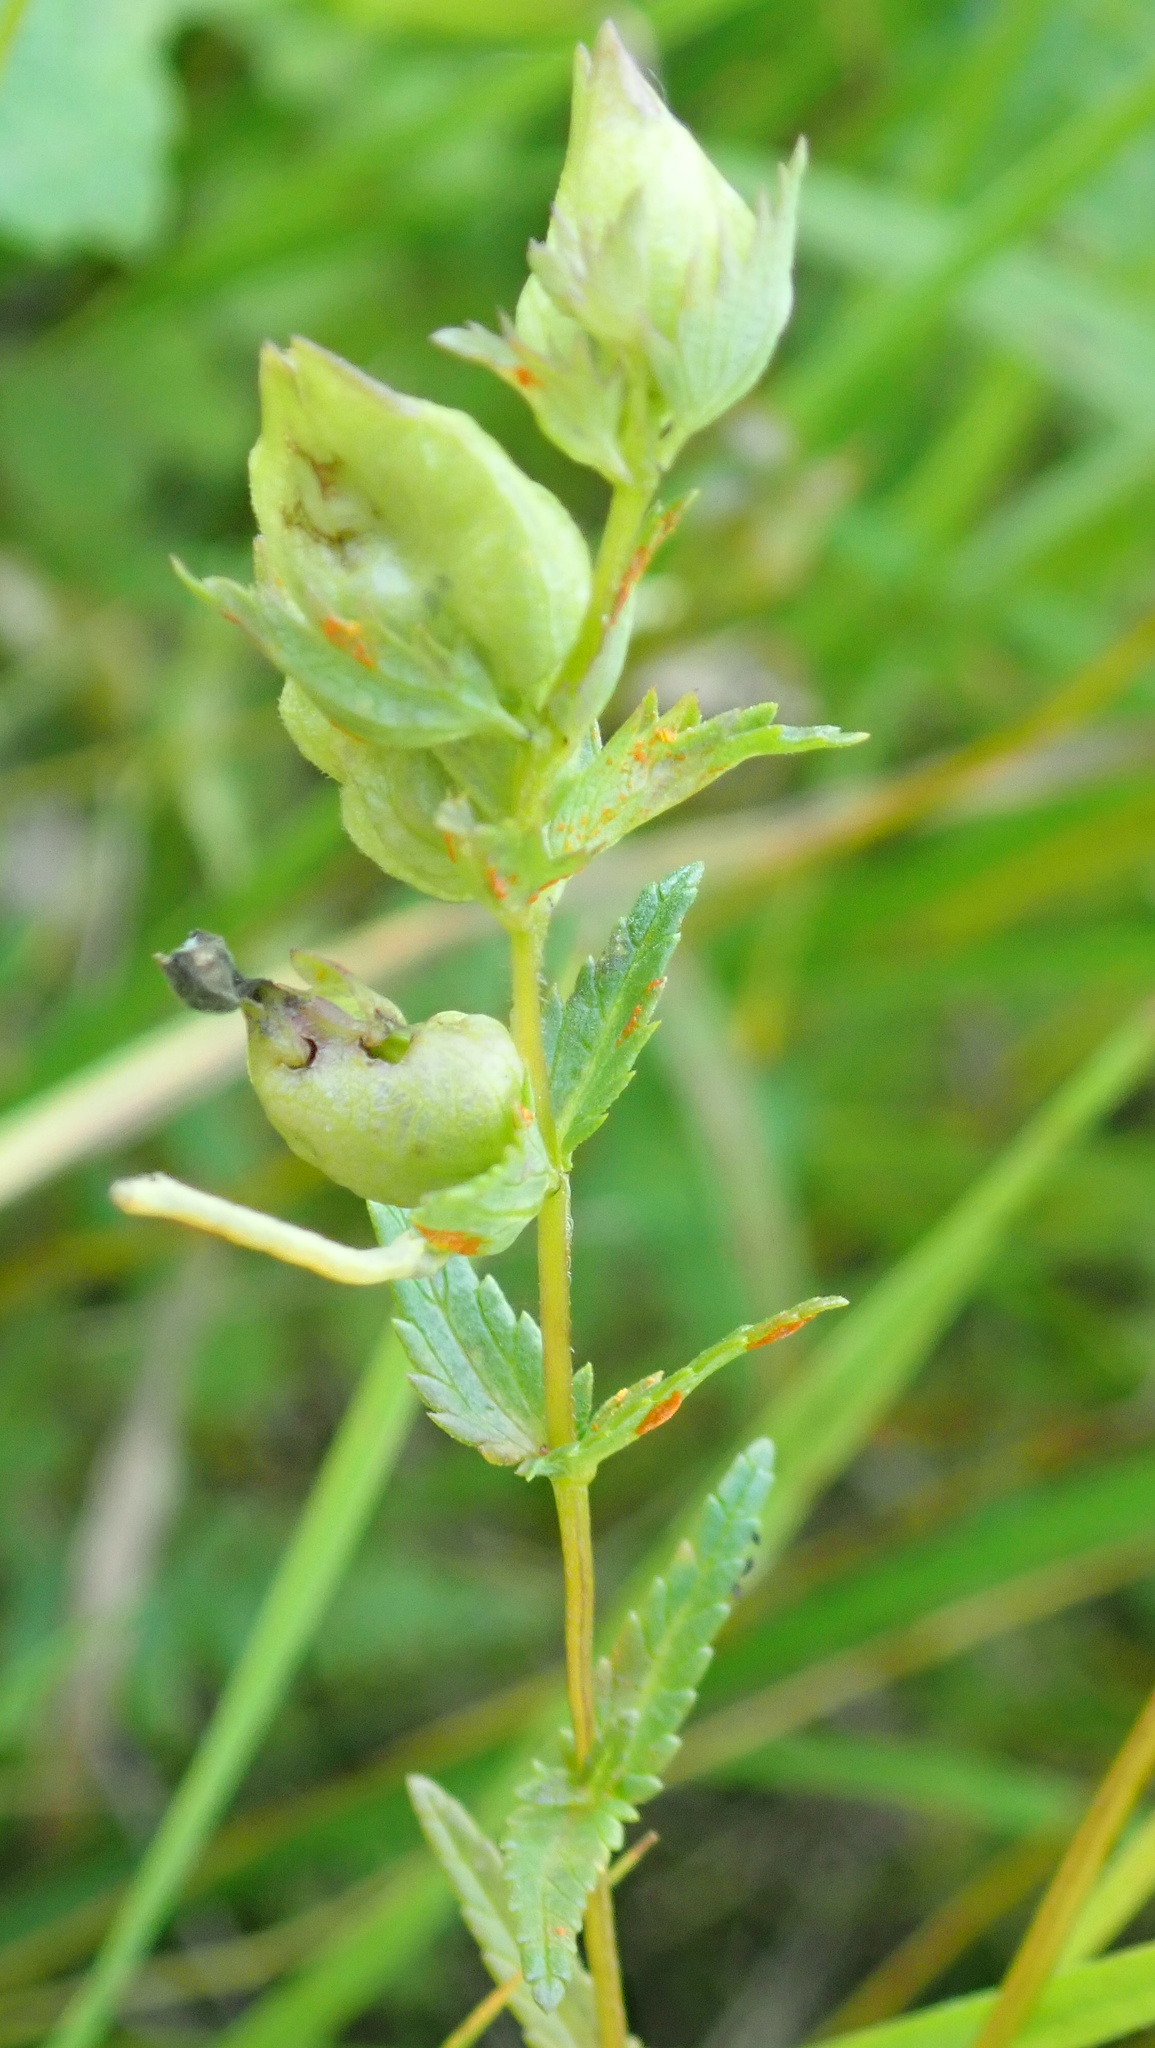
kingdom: Plantae
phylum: Tracheophyta
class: Magnoliopsida
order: Lamiales
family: Orobanchaceae
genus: Rhinanthus
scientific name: Rhinanthus minor
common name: Yellow-rattle
